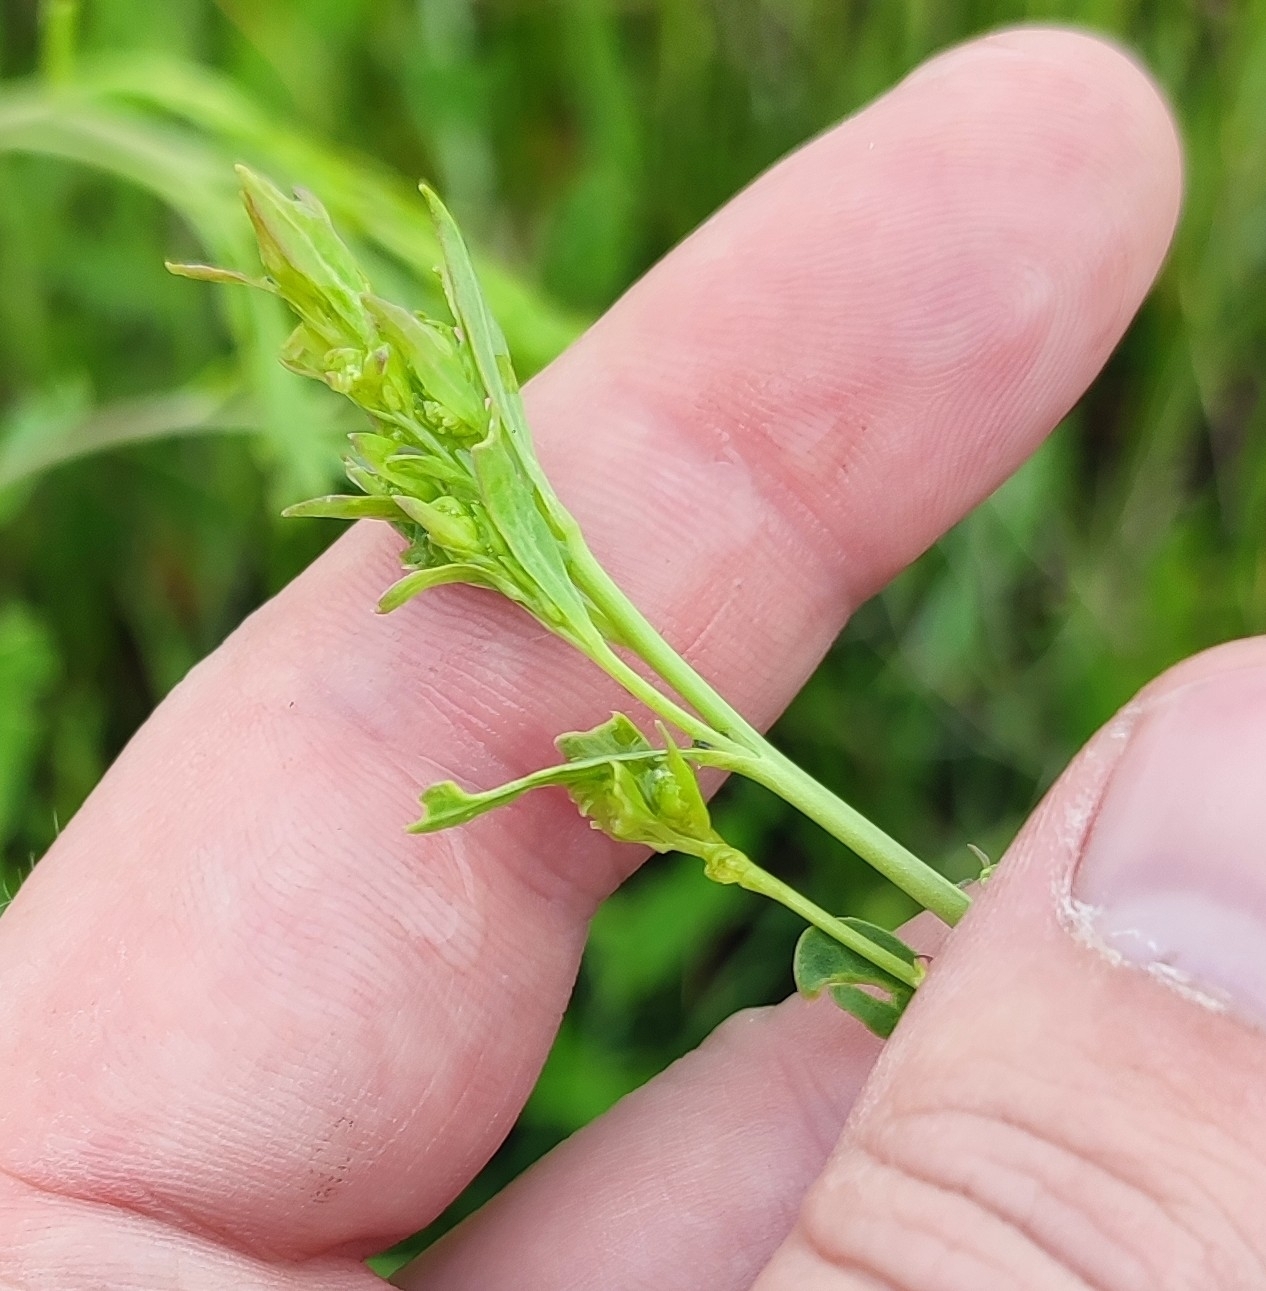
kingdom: Plantae
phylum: Tracheophyta
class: Magnoliopsida
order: Brassicales
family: Brassicaceae
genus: Lepidium
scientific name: Lepidium latifolium
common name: Dittander
